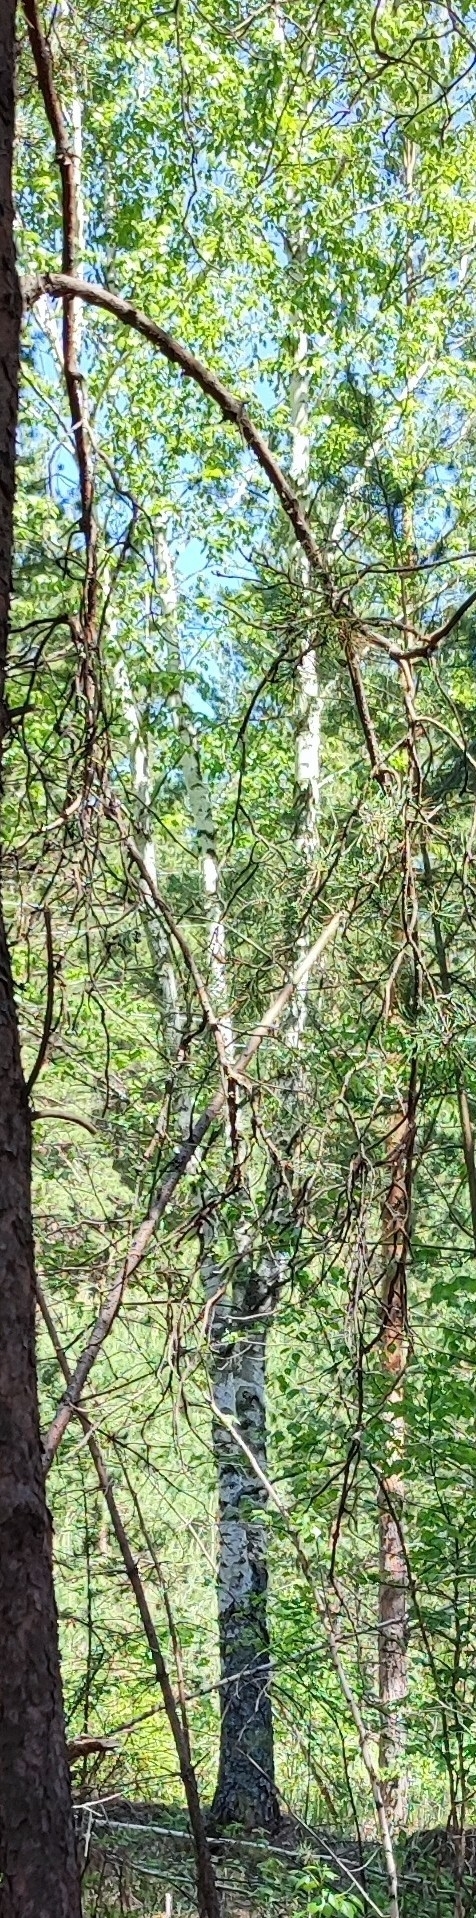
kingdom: Plantae
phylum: Tracheophyta
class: Magnoliopsida
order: Fagales
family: Betulaceae
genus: Betula
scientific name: Betula pendula
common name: Silver birch
